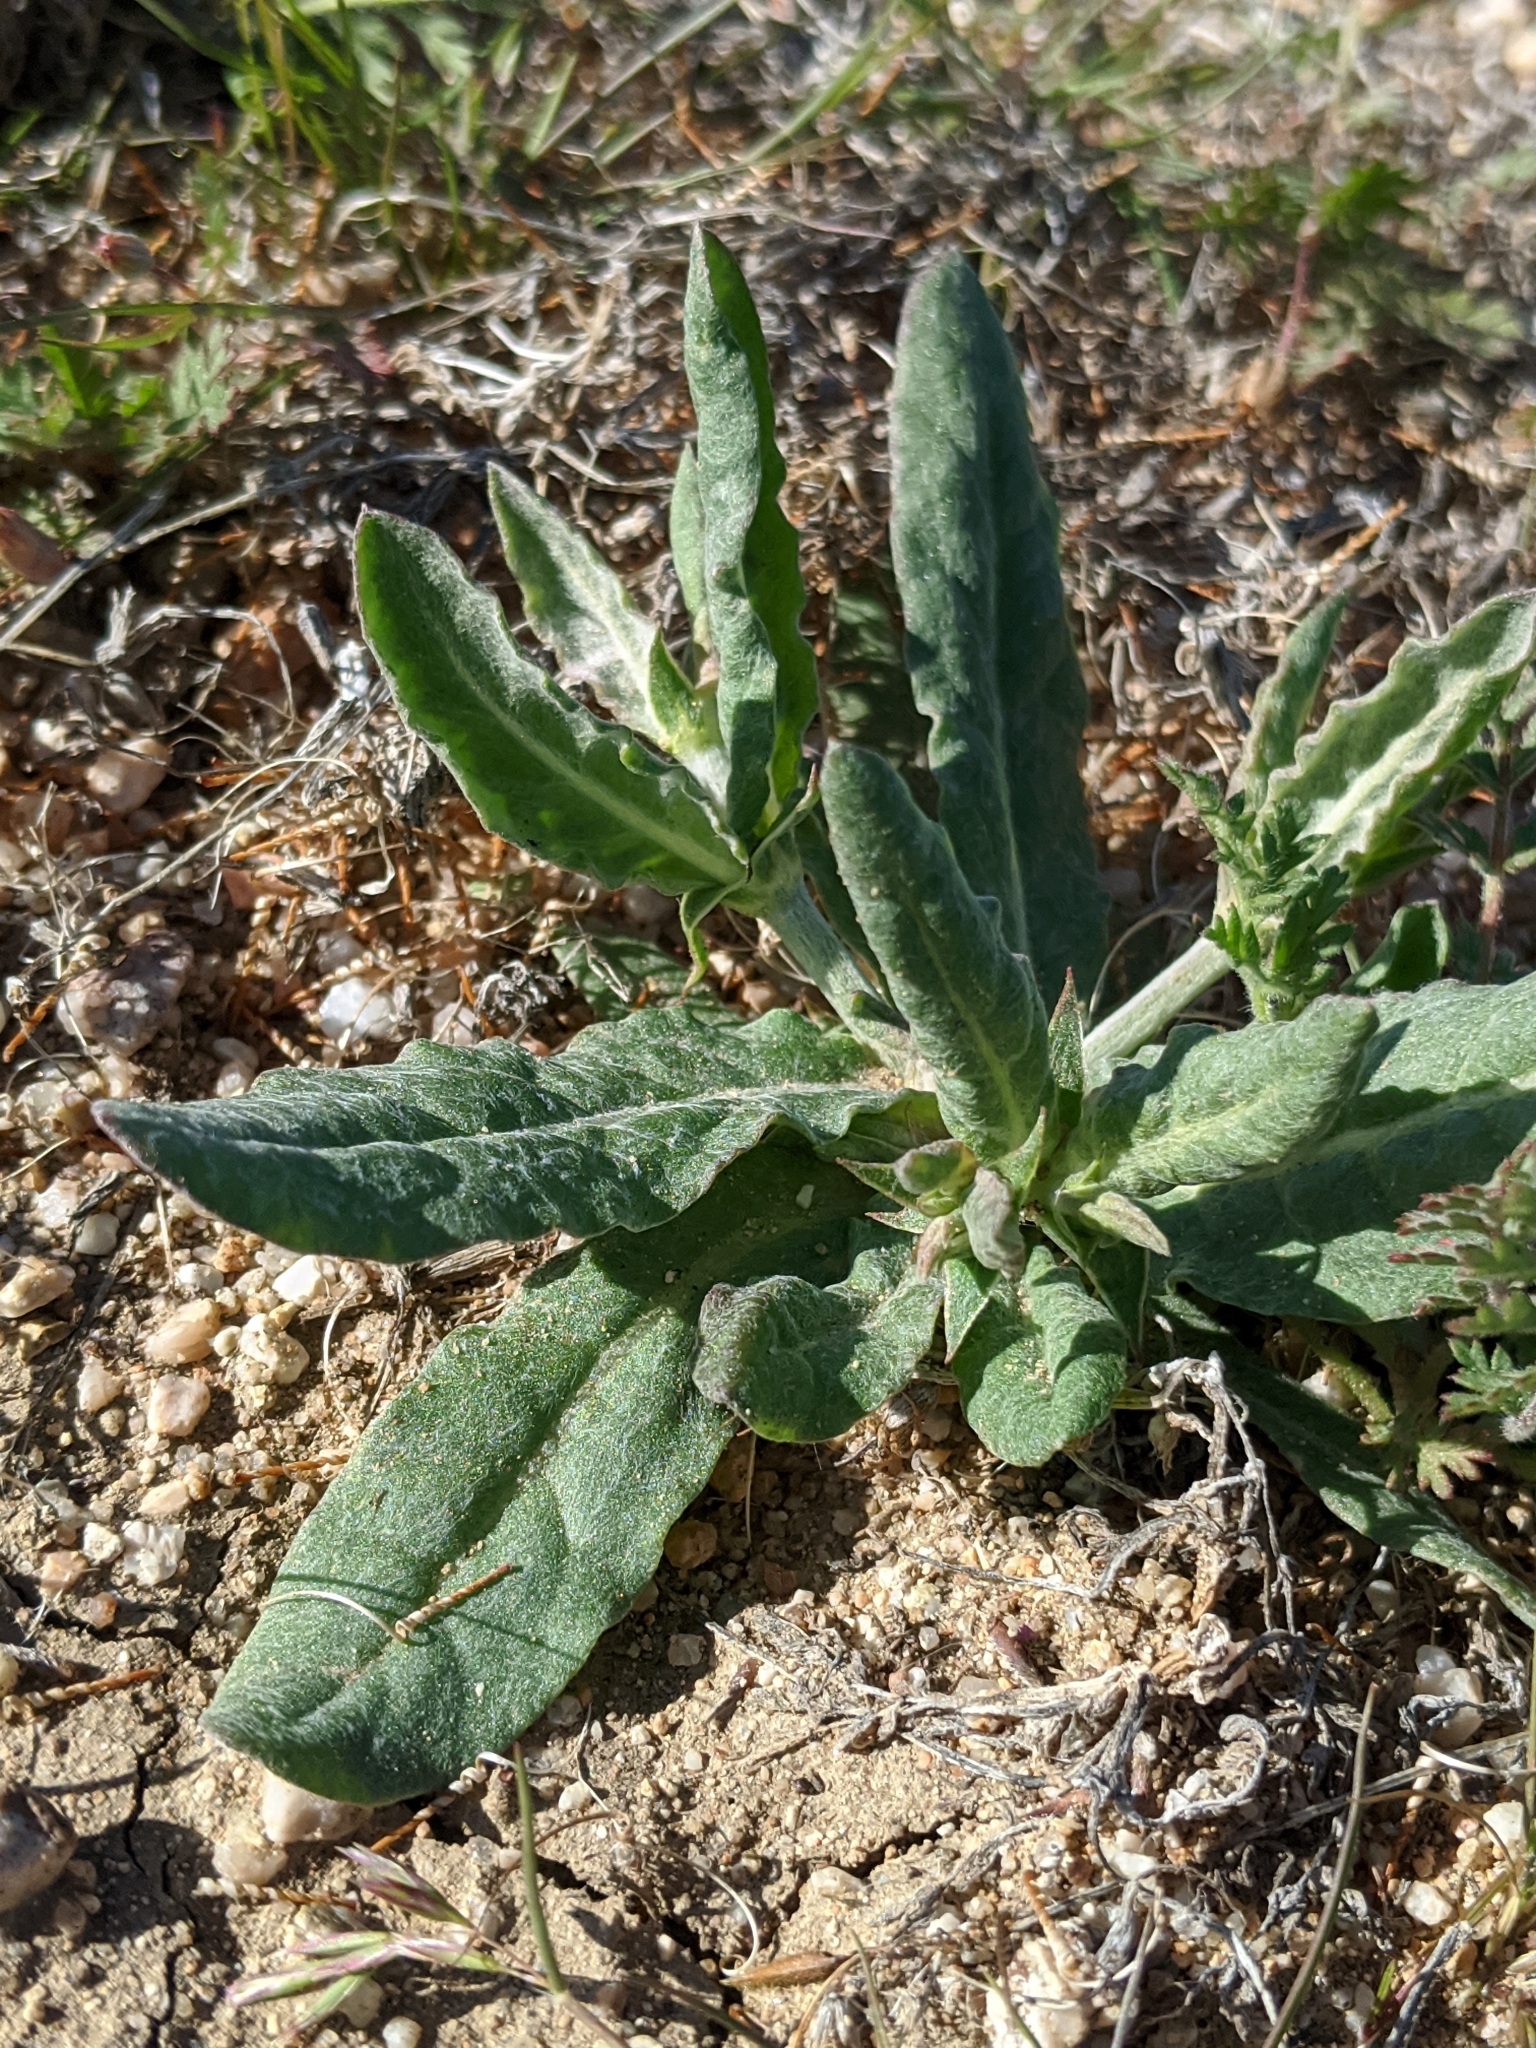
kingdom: Plantae
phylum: Tracheophyta
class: Magnoliopsida
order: Caryophyllales
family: Polygonaceae
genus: Eriogonum
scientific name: Eriogonum gracillimum
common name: Rose-and-white wild buckwheat
